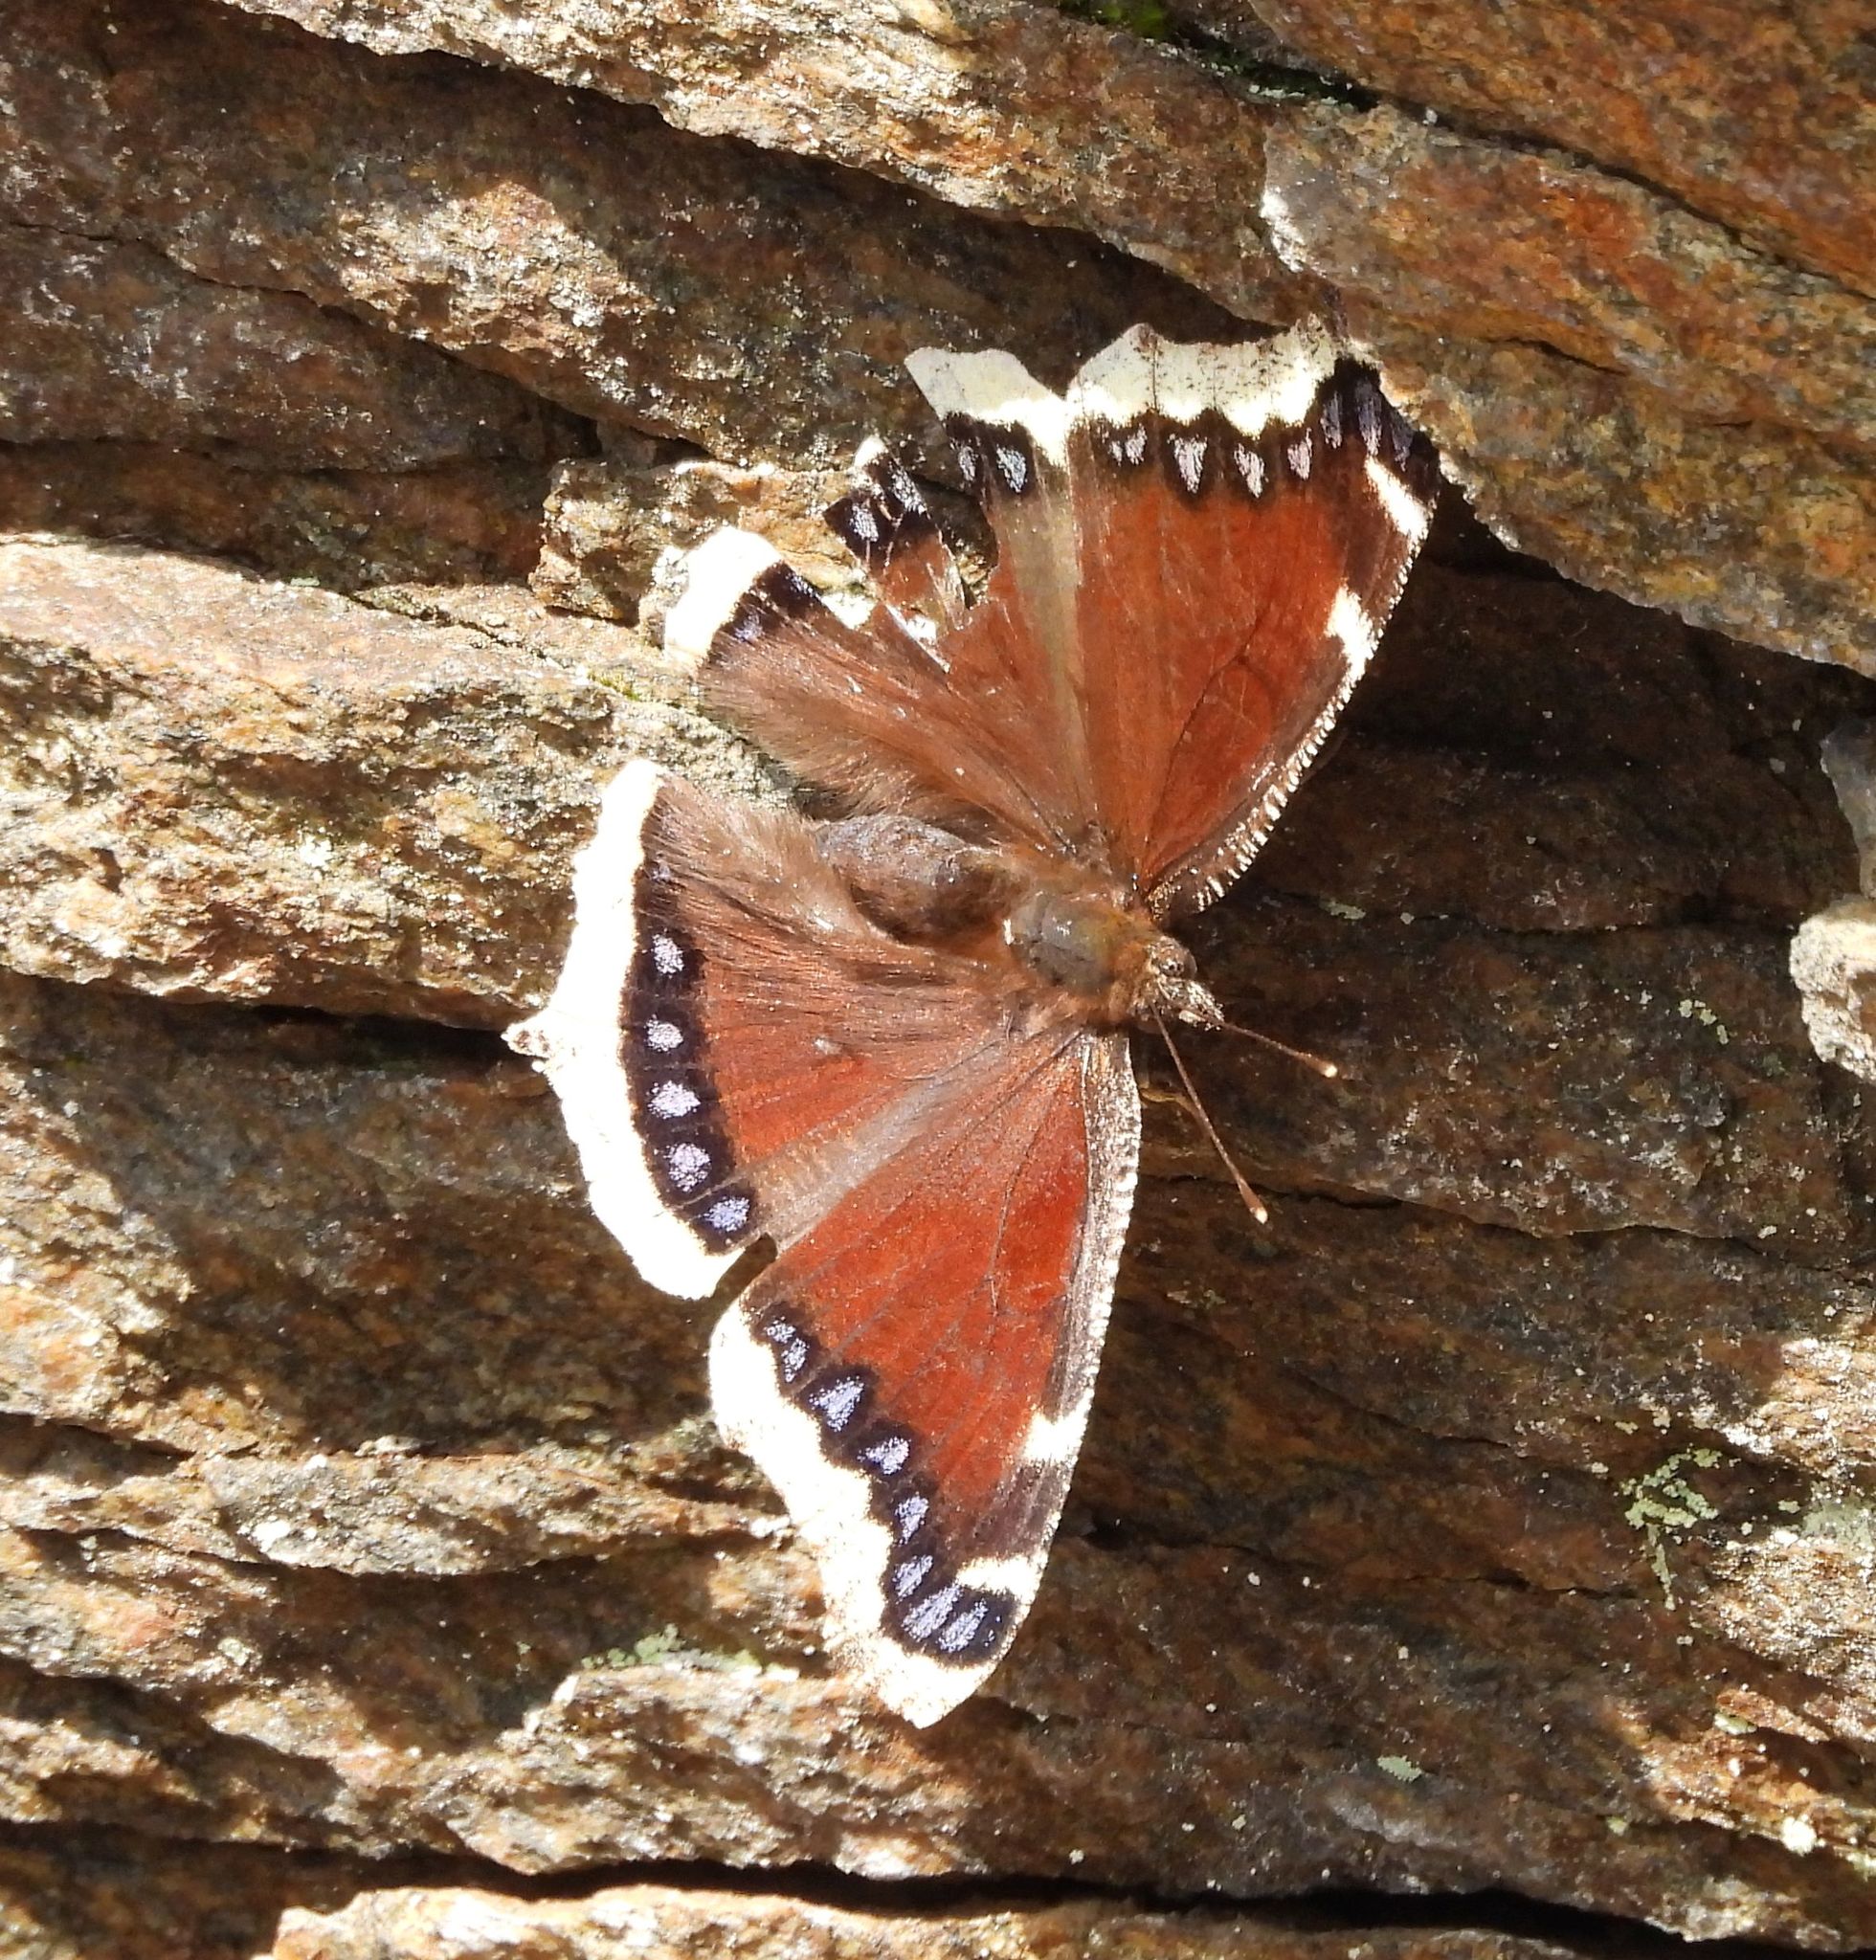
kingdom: Animalia
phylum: Arthropoda
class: Insecta
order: Lepidoptera
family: Nymphalidae
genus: Nymphalis
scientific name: Nymphalis antiopa
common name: Camberwell beauty
